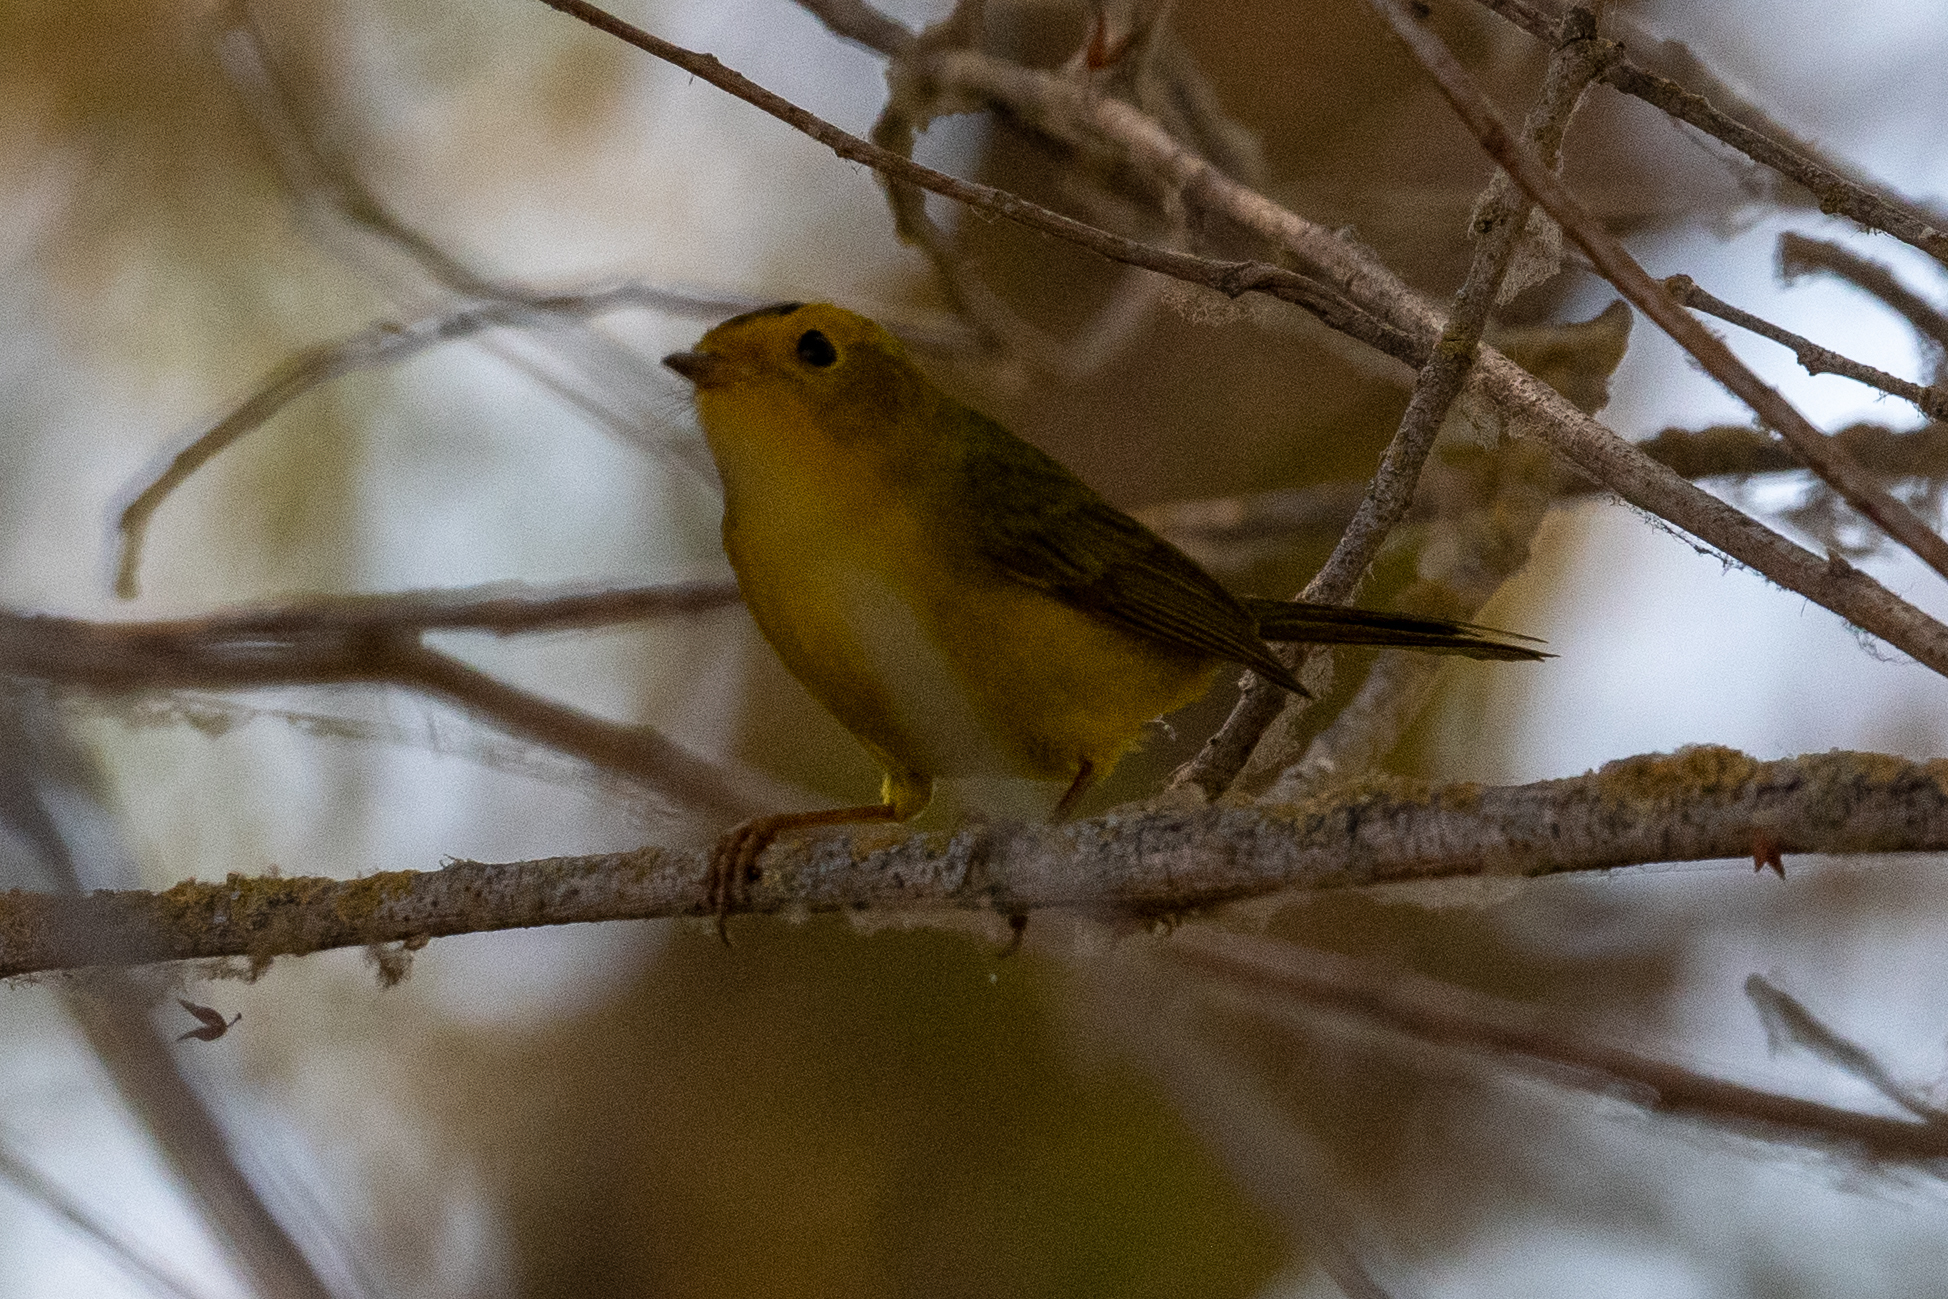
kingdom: Animalia
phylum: Chordata
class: Aves
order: Passeriformes
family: Parulidae
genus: Cardellina
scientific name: Cardellina pusilla
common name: Wilson's warbler
